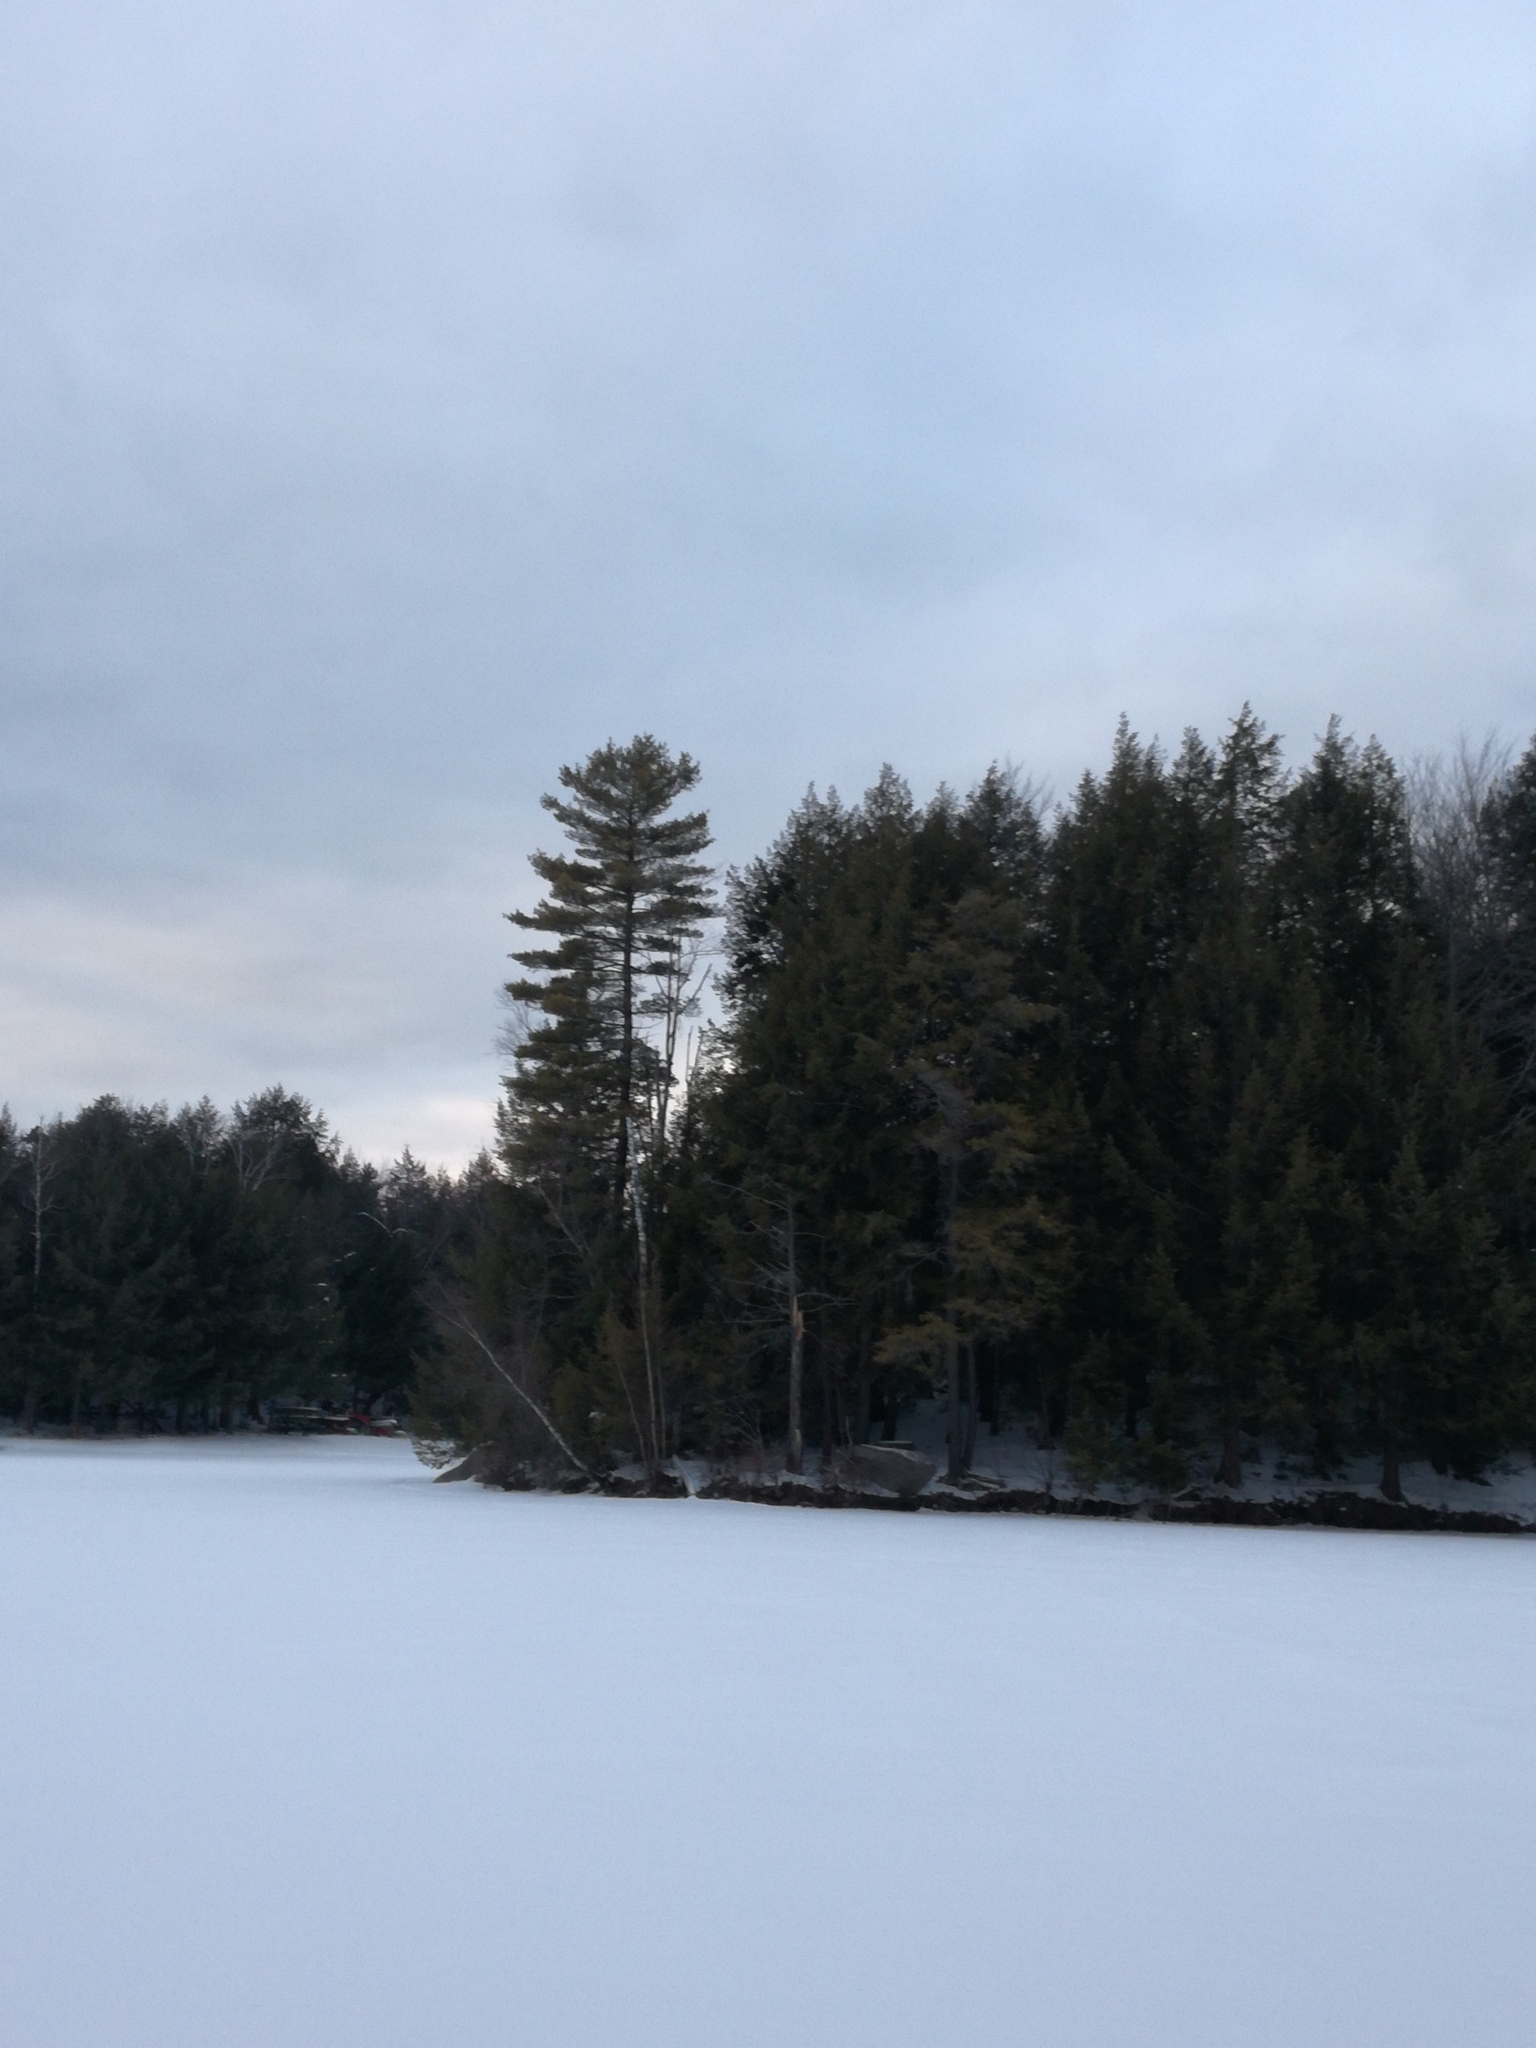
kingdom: Plantae
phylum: Tracheophyta
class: Pinopsida
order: Pinales
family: Pinaceae
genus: Pinus
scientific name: Pinus strobus
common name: Weymouth pine
